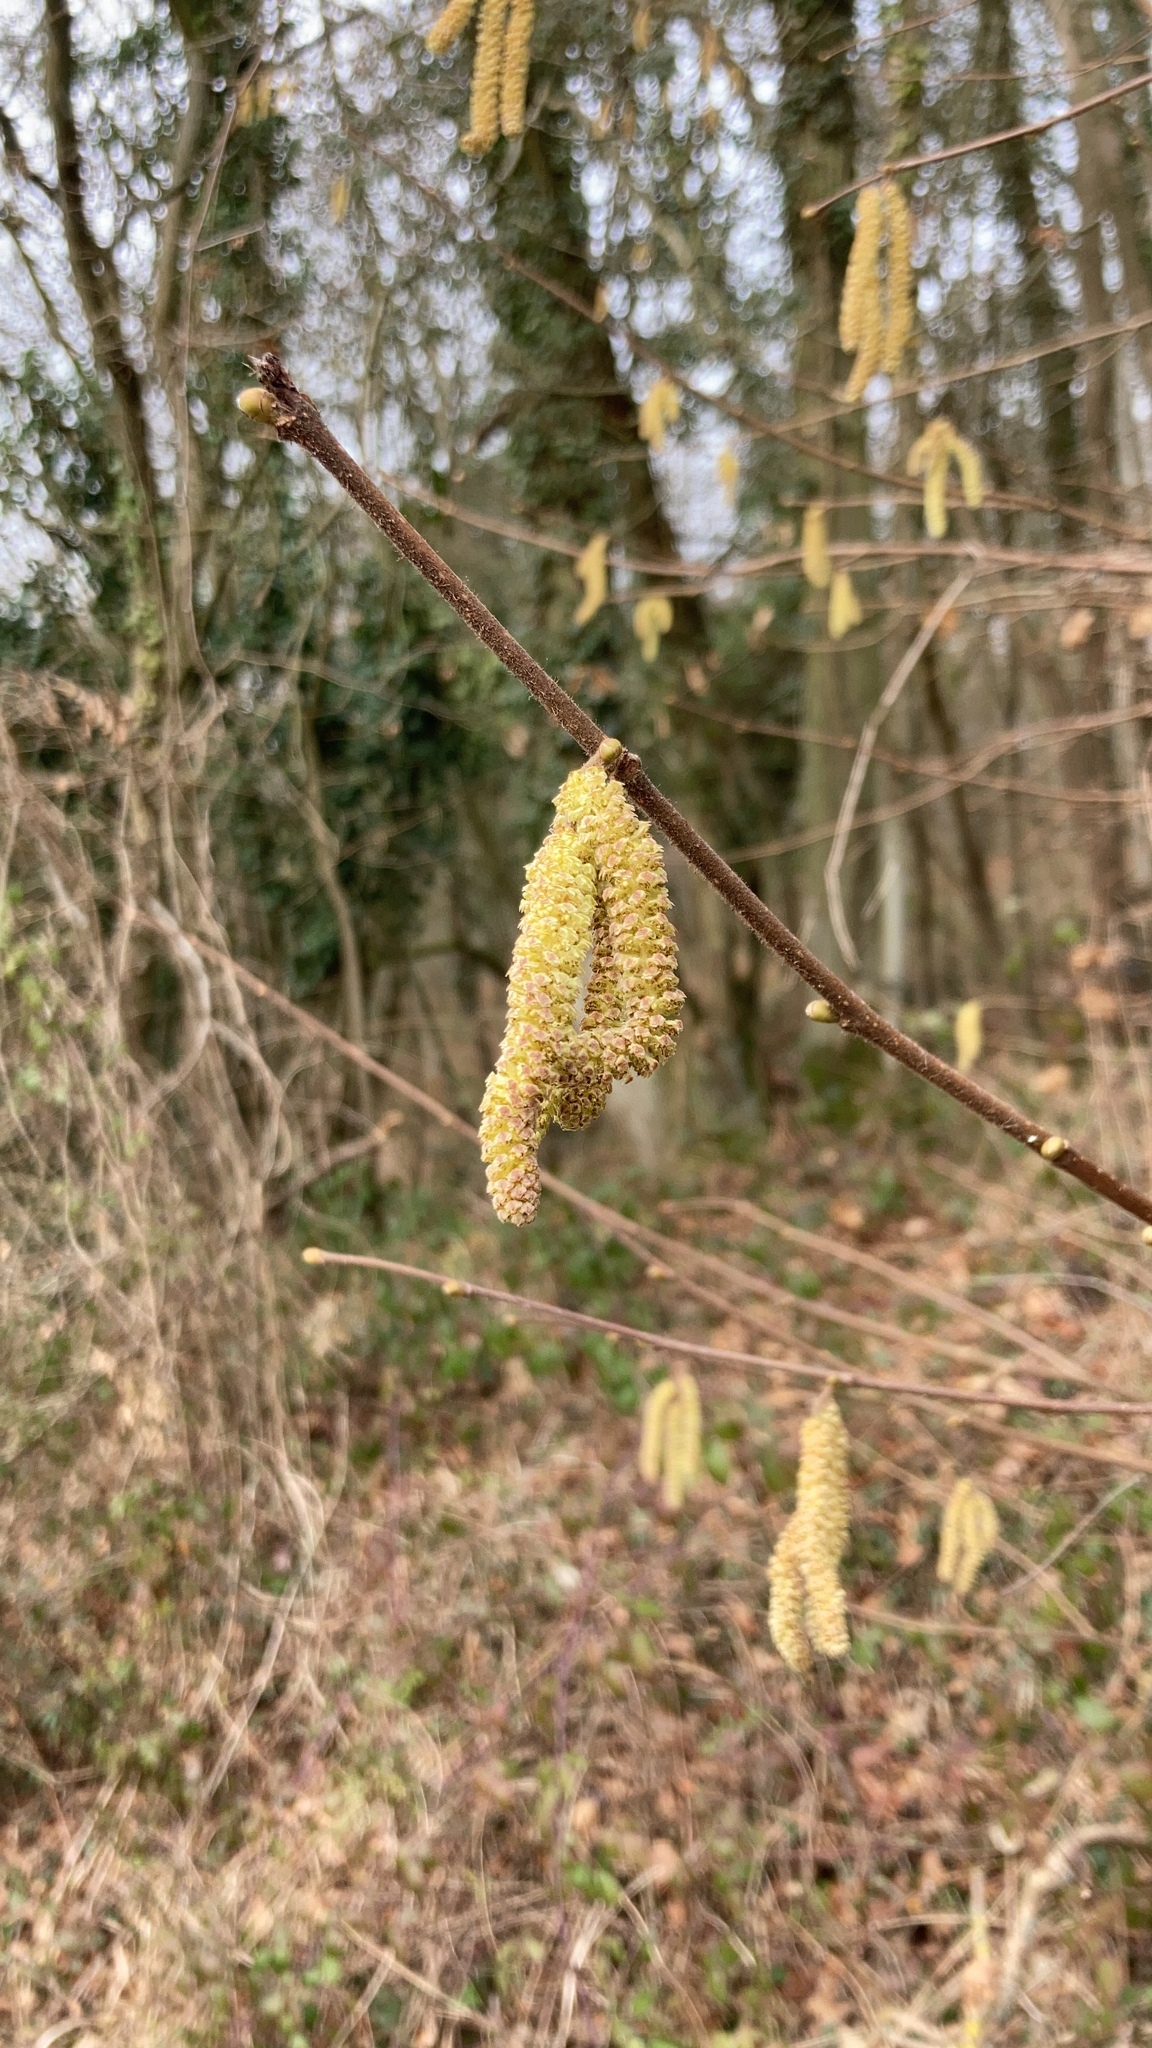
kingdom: Plantae
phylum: Tracheophyta
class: Magnoliopsida
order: Fagales
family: Betulaceae
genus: Corylus
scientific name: Corylus avellana
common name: European hazel
